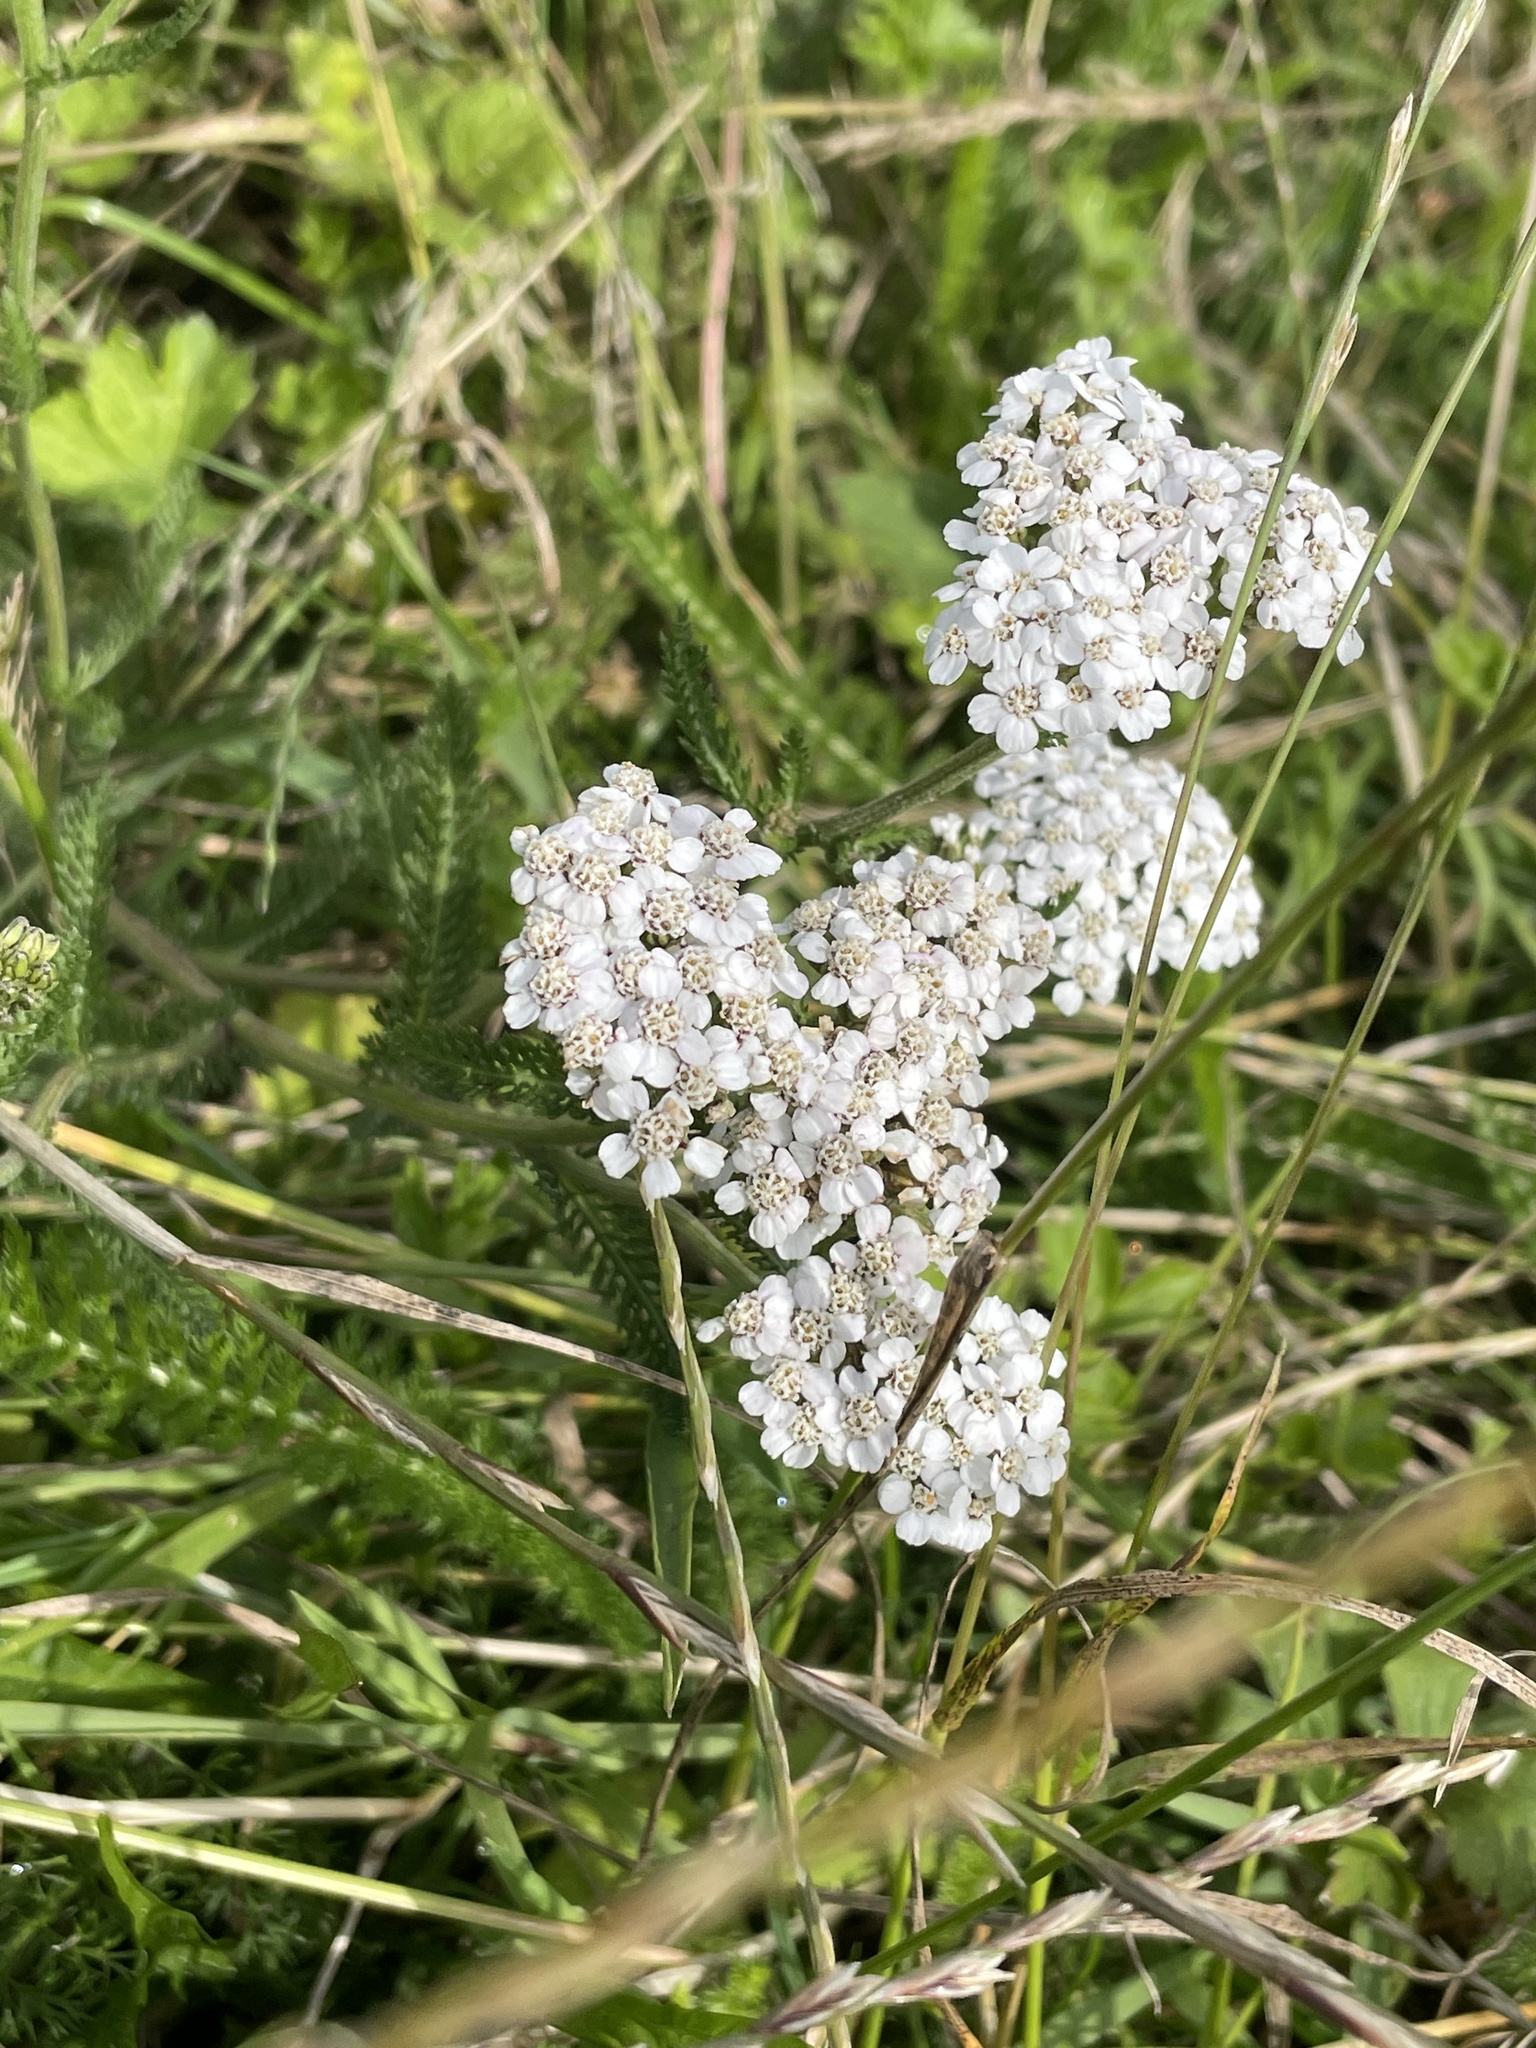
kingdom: Plantae
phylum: Tracheophyta
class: Magnoliopsida
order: Asterales
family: Asteraceae
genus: Achillea
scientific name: Achillea millefolium
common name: Yarrow
